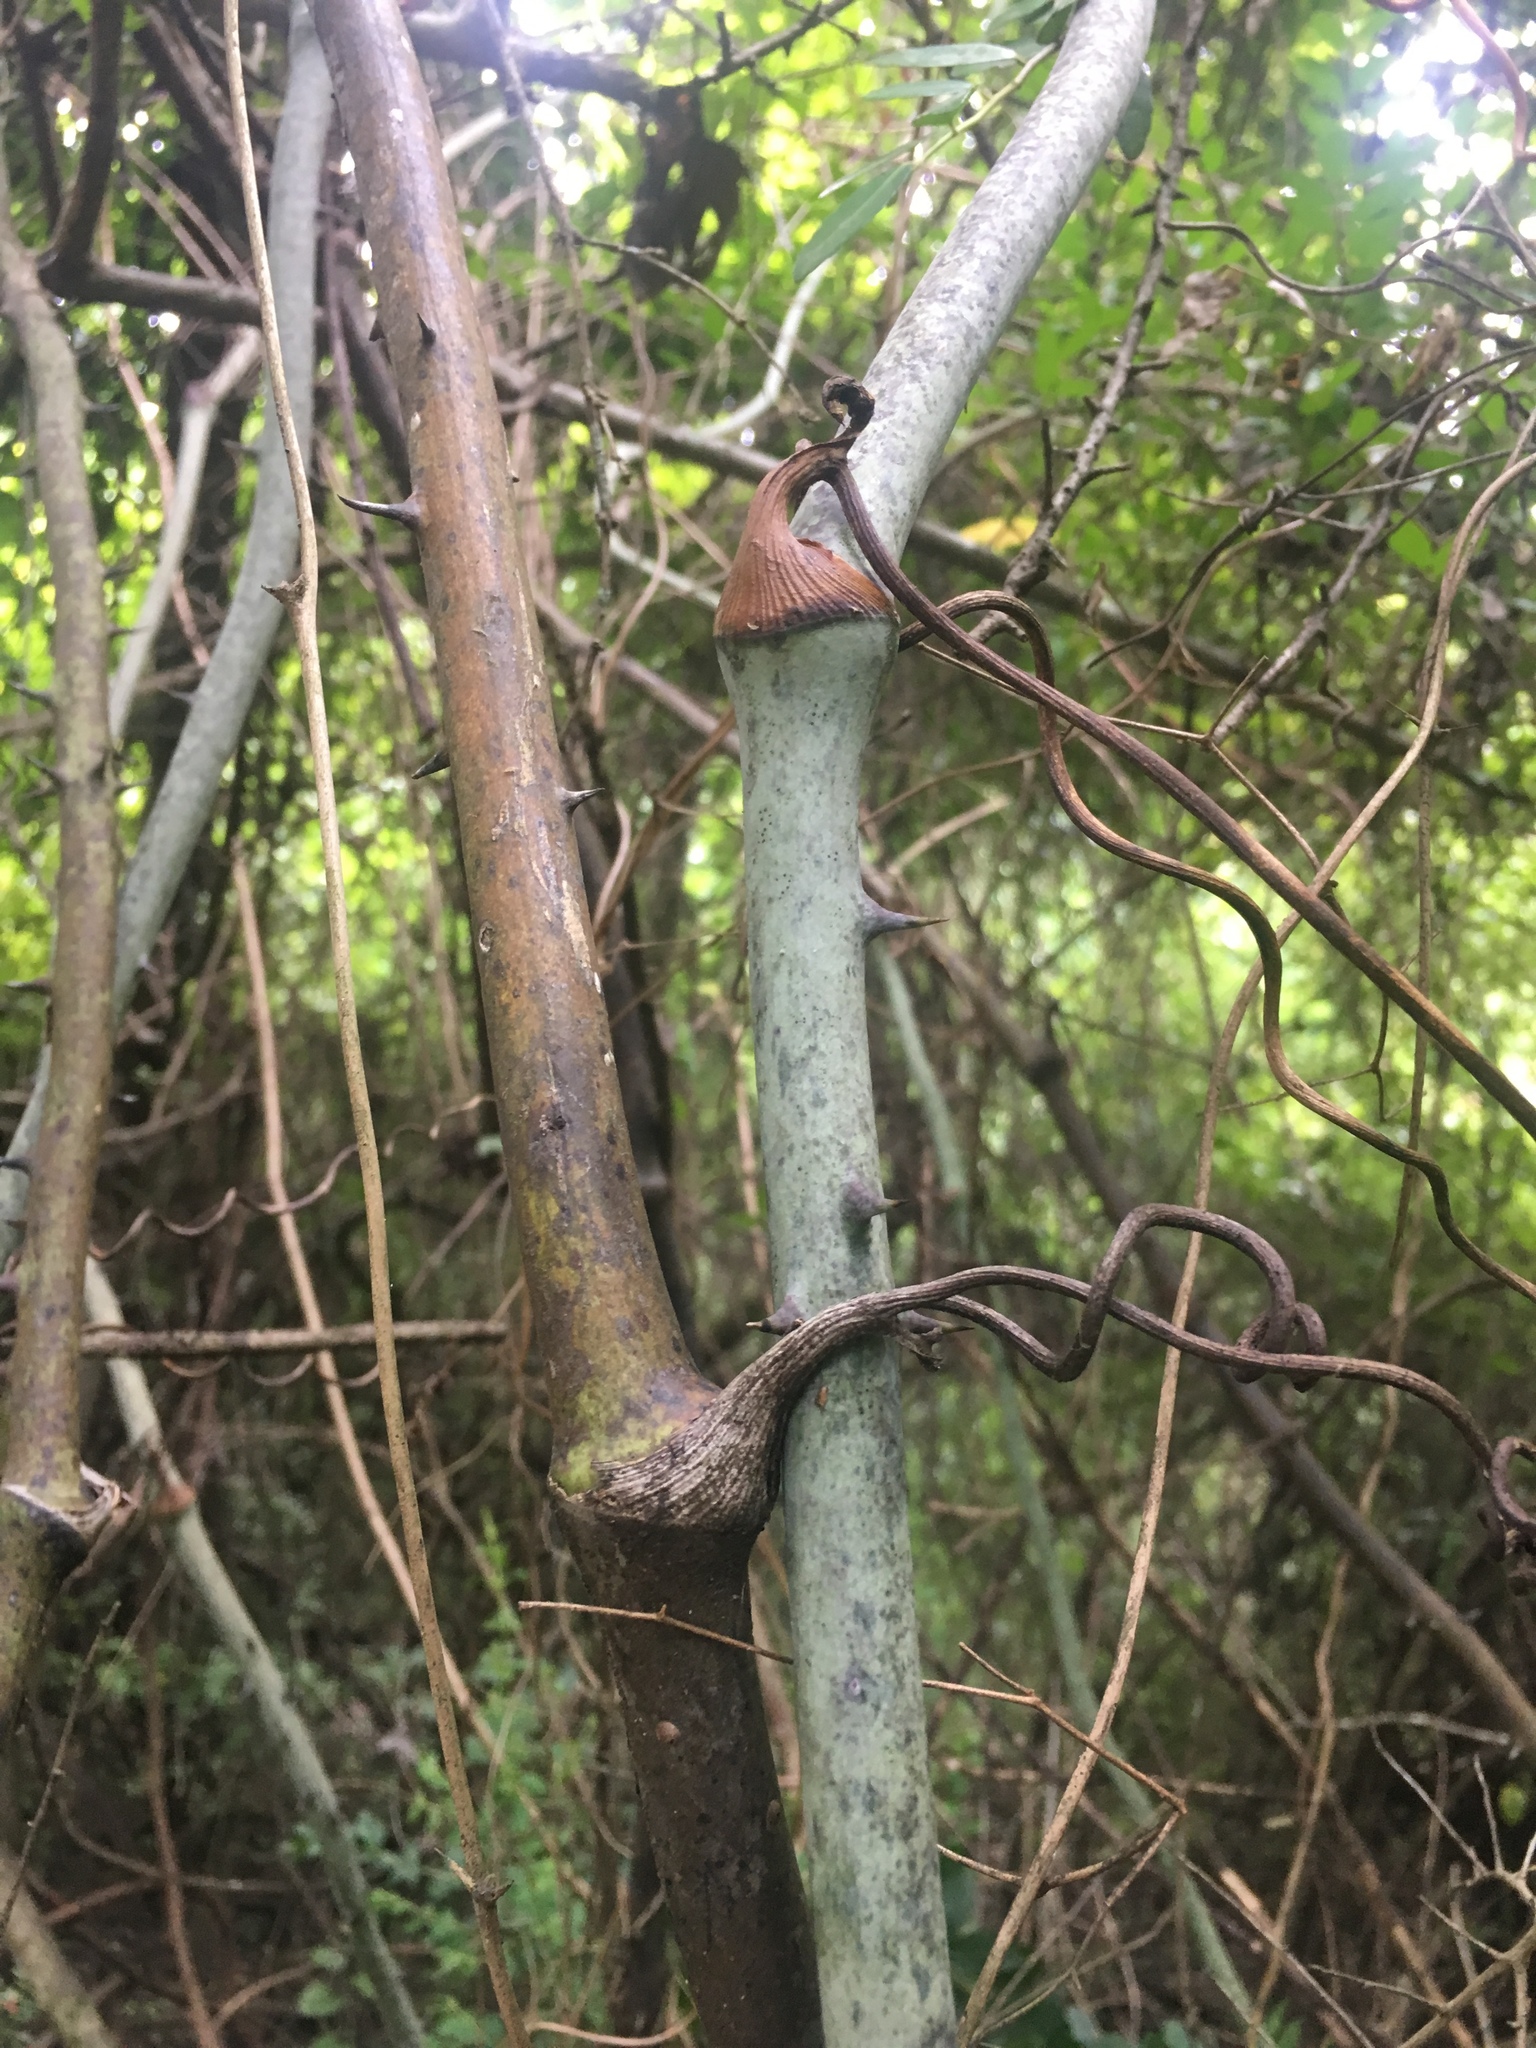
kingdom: Plantae
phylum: Tracheophyta
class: Liliopsida
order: Liliales
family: Smilacaceae
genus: Smilax
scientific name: Smilax maritima
